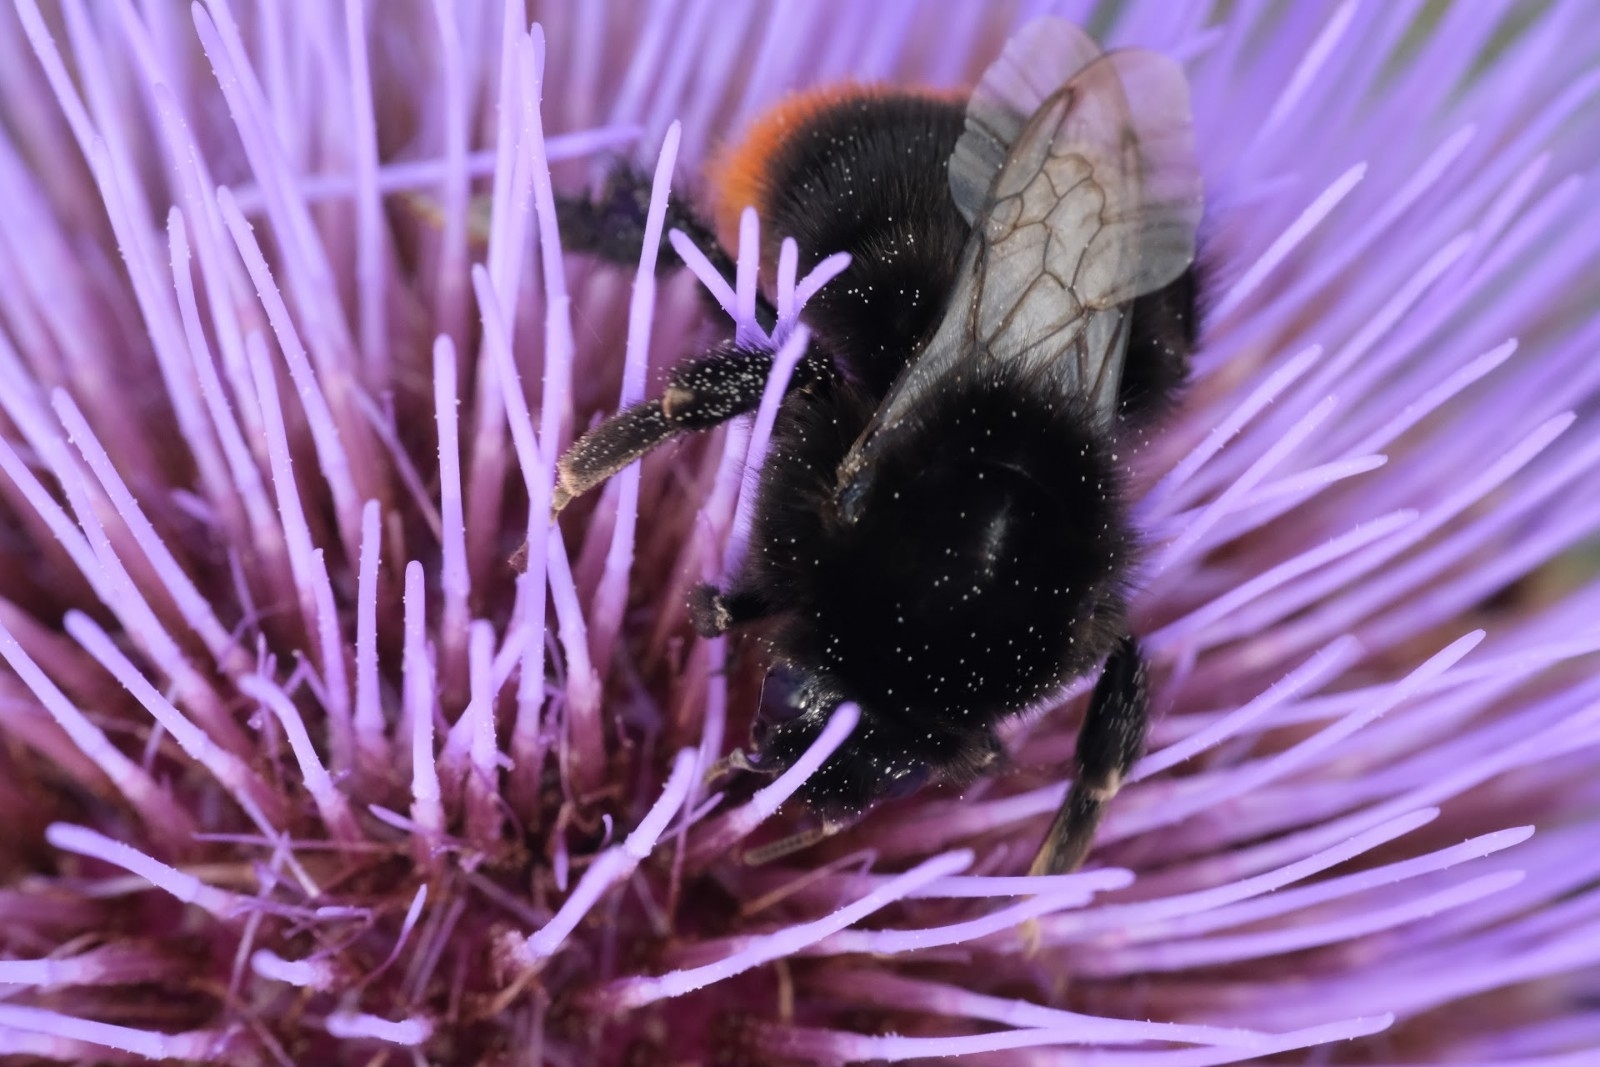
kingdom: Animalia
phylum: Arthropoda
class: Insecta
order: Hymenoptera
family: Apidae
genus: Bombus
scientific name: Bombus lapidarius
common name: Large red-tailed humble-bee
